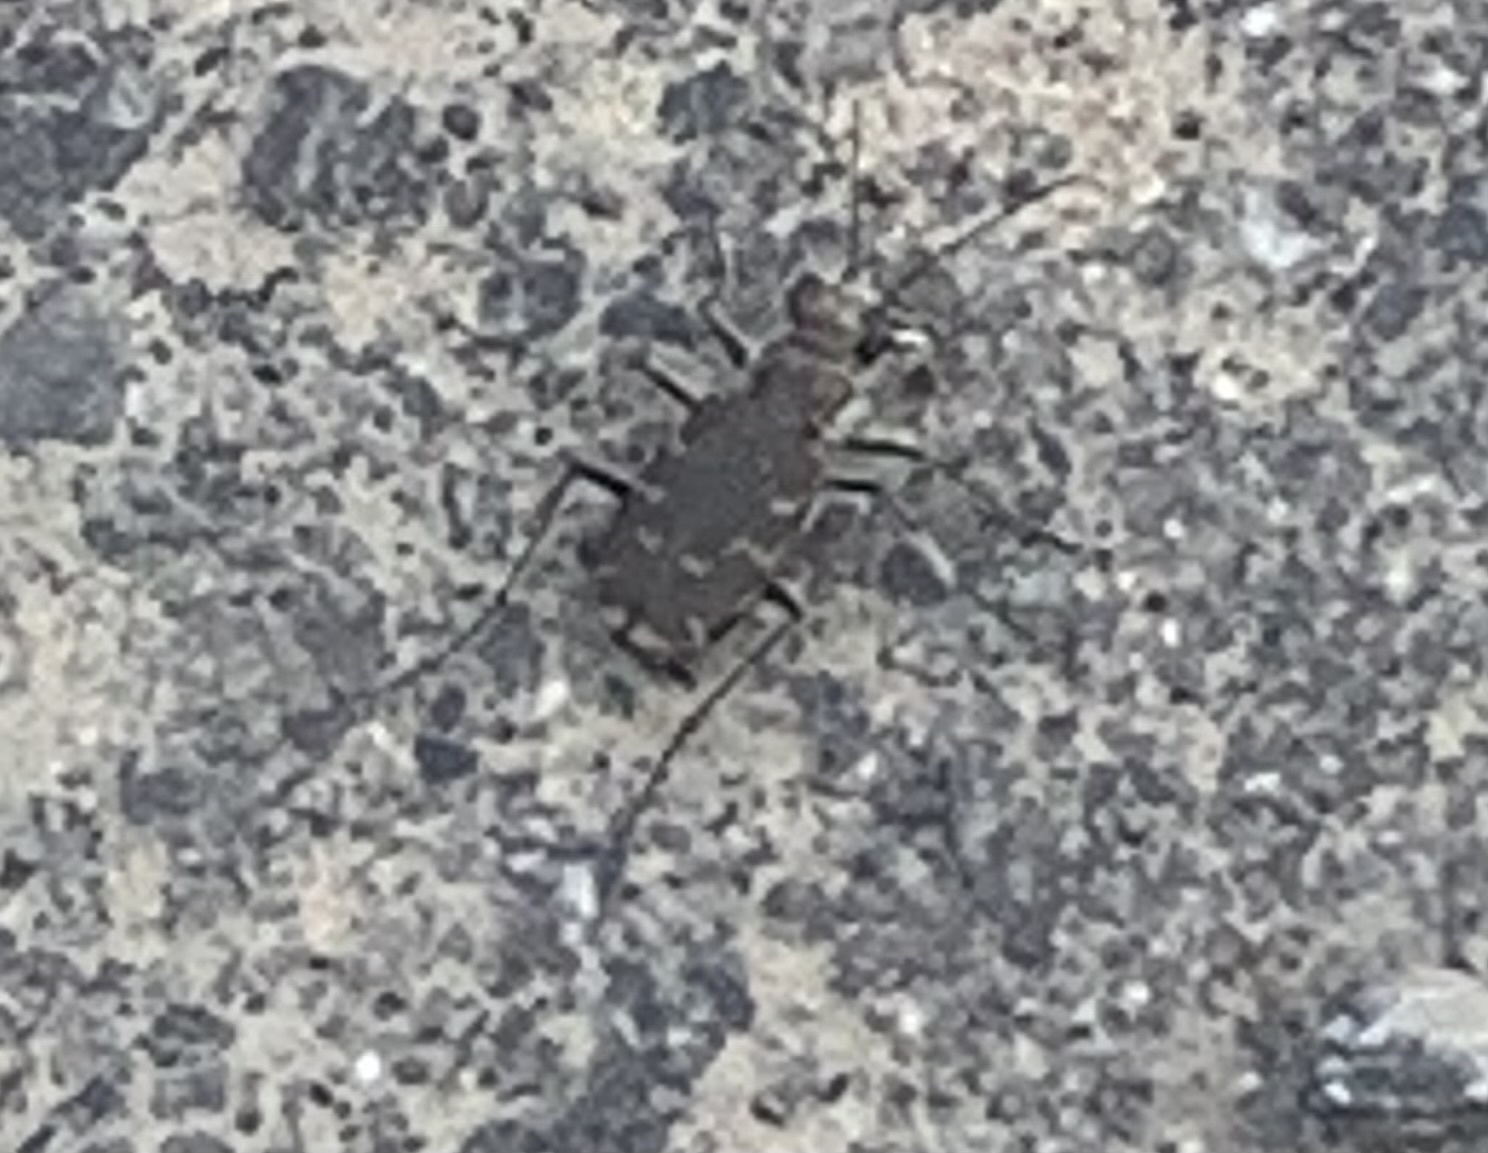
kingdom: Animalia
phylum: Arthropoda
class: Insecta
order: Coleoptera
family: Carabidae
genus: Cicindela
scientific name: Cicindela repanda
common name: Bronzed tiger beetle
